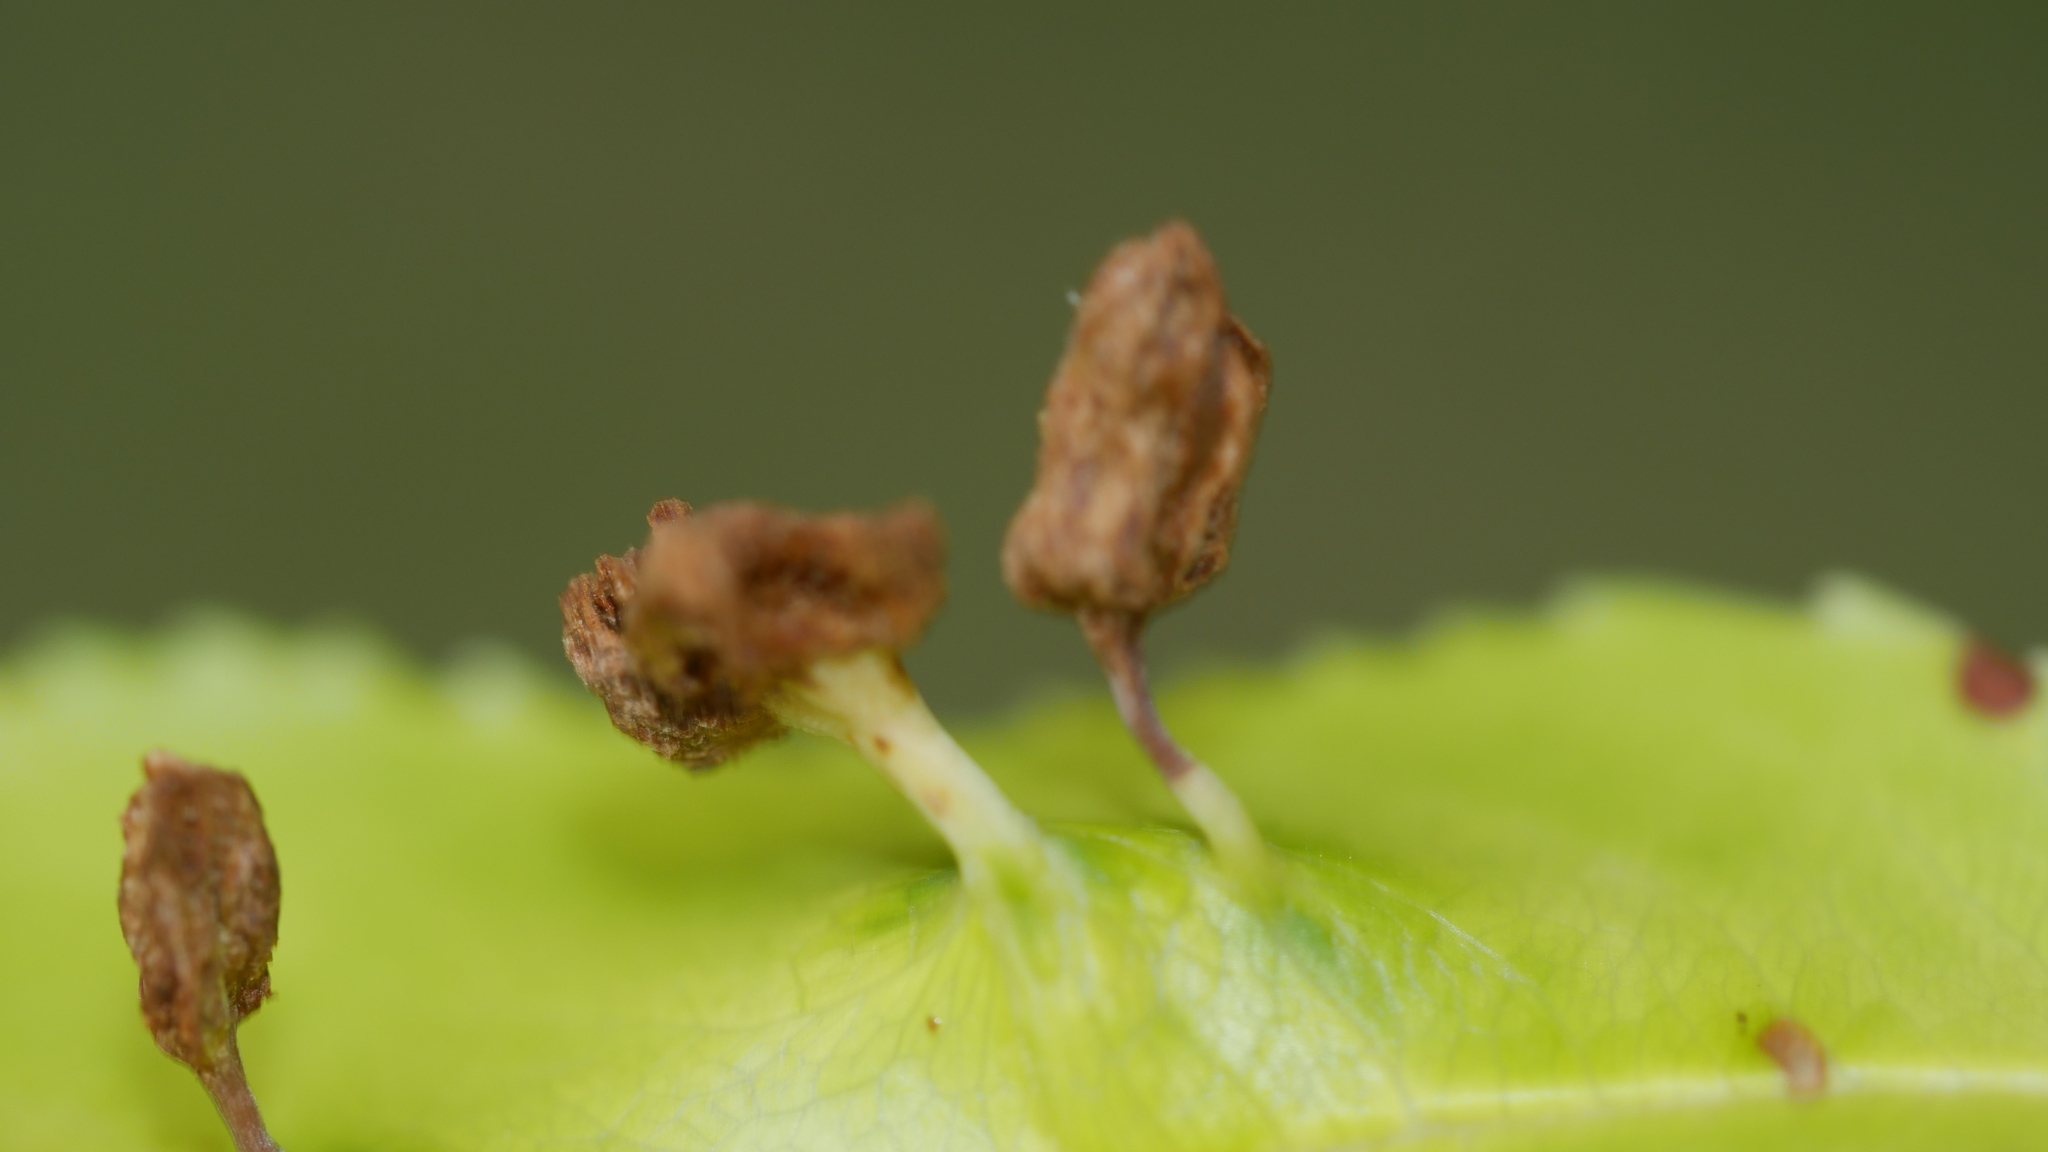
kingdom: Animalia
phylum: Arthropoda
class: Arachnida
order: Trombidiformes
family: Eriophyidae
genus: Eriophyes
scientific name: Eriophyes
